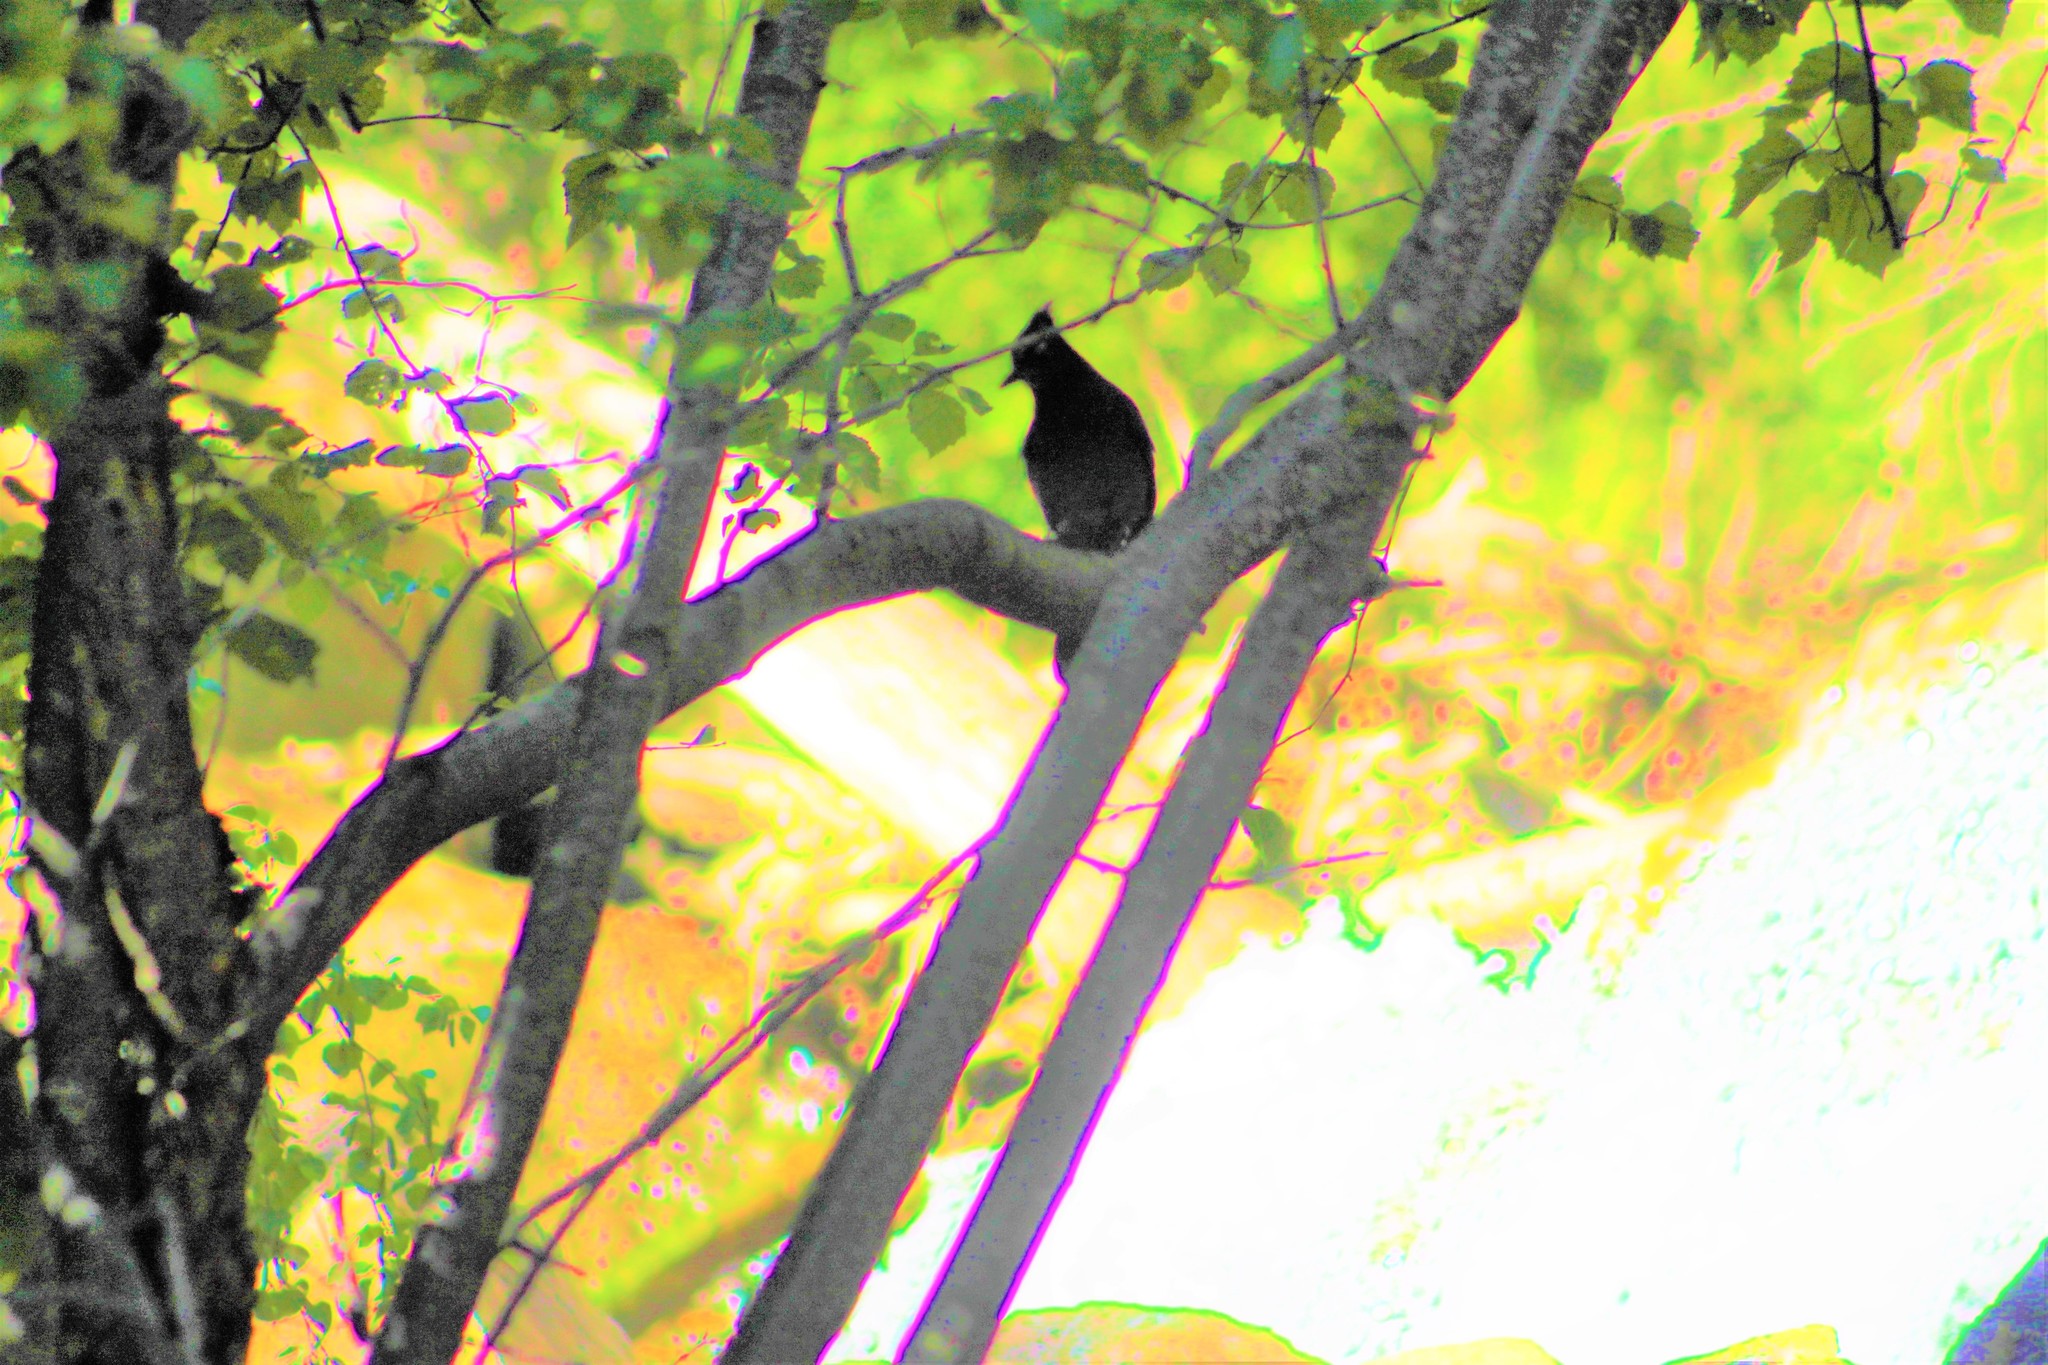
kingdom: Animalia
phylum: Chordata
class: Aves
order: Passeriformes
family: Corvidae
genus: Cyanocitta
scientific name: Cyanocitta stelleri
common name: Steller's jay
